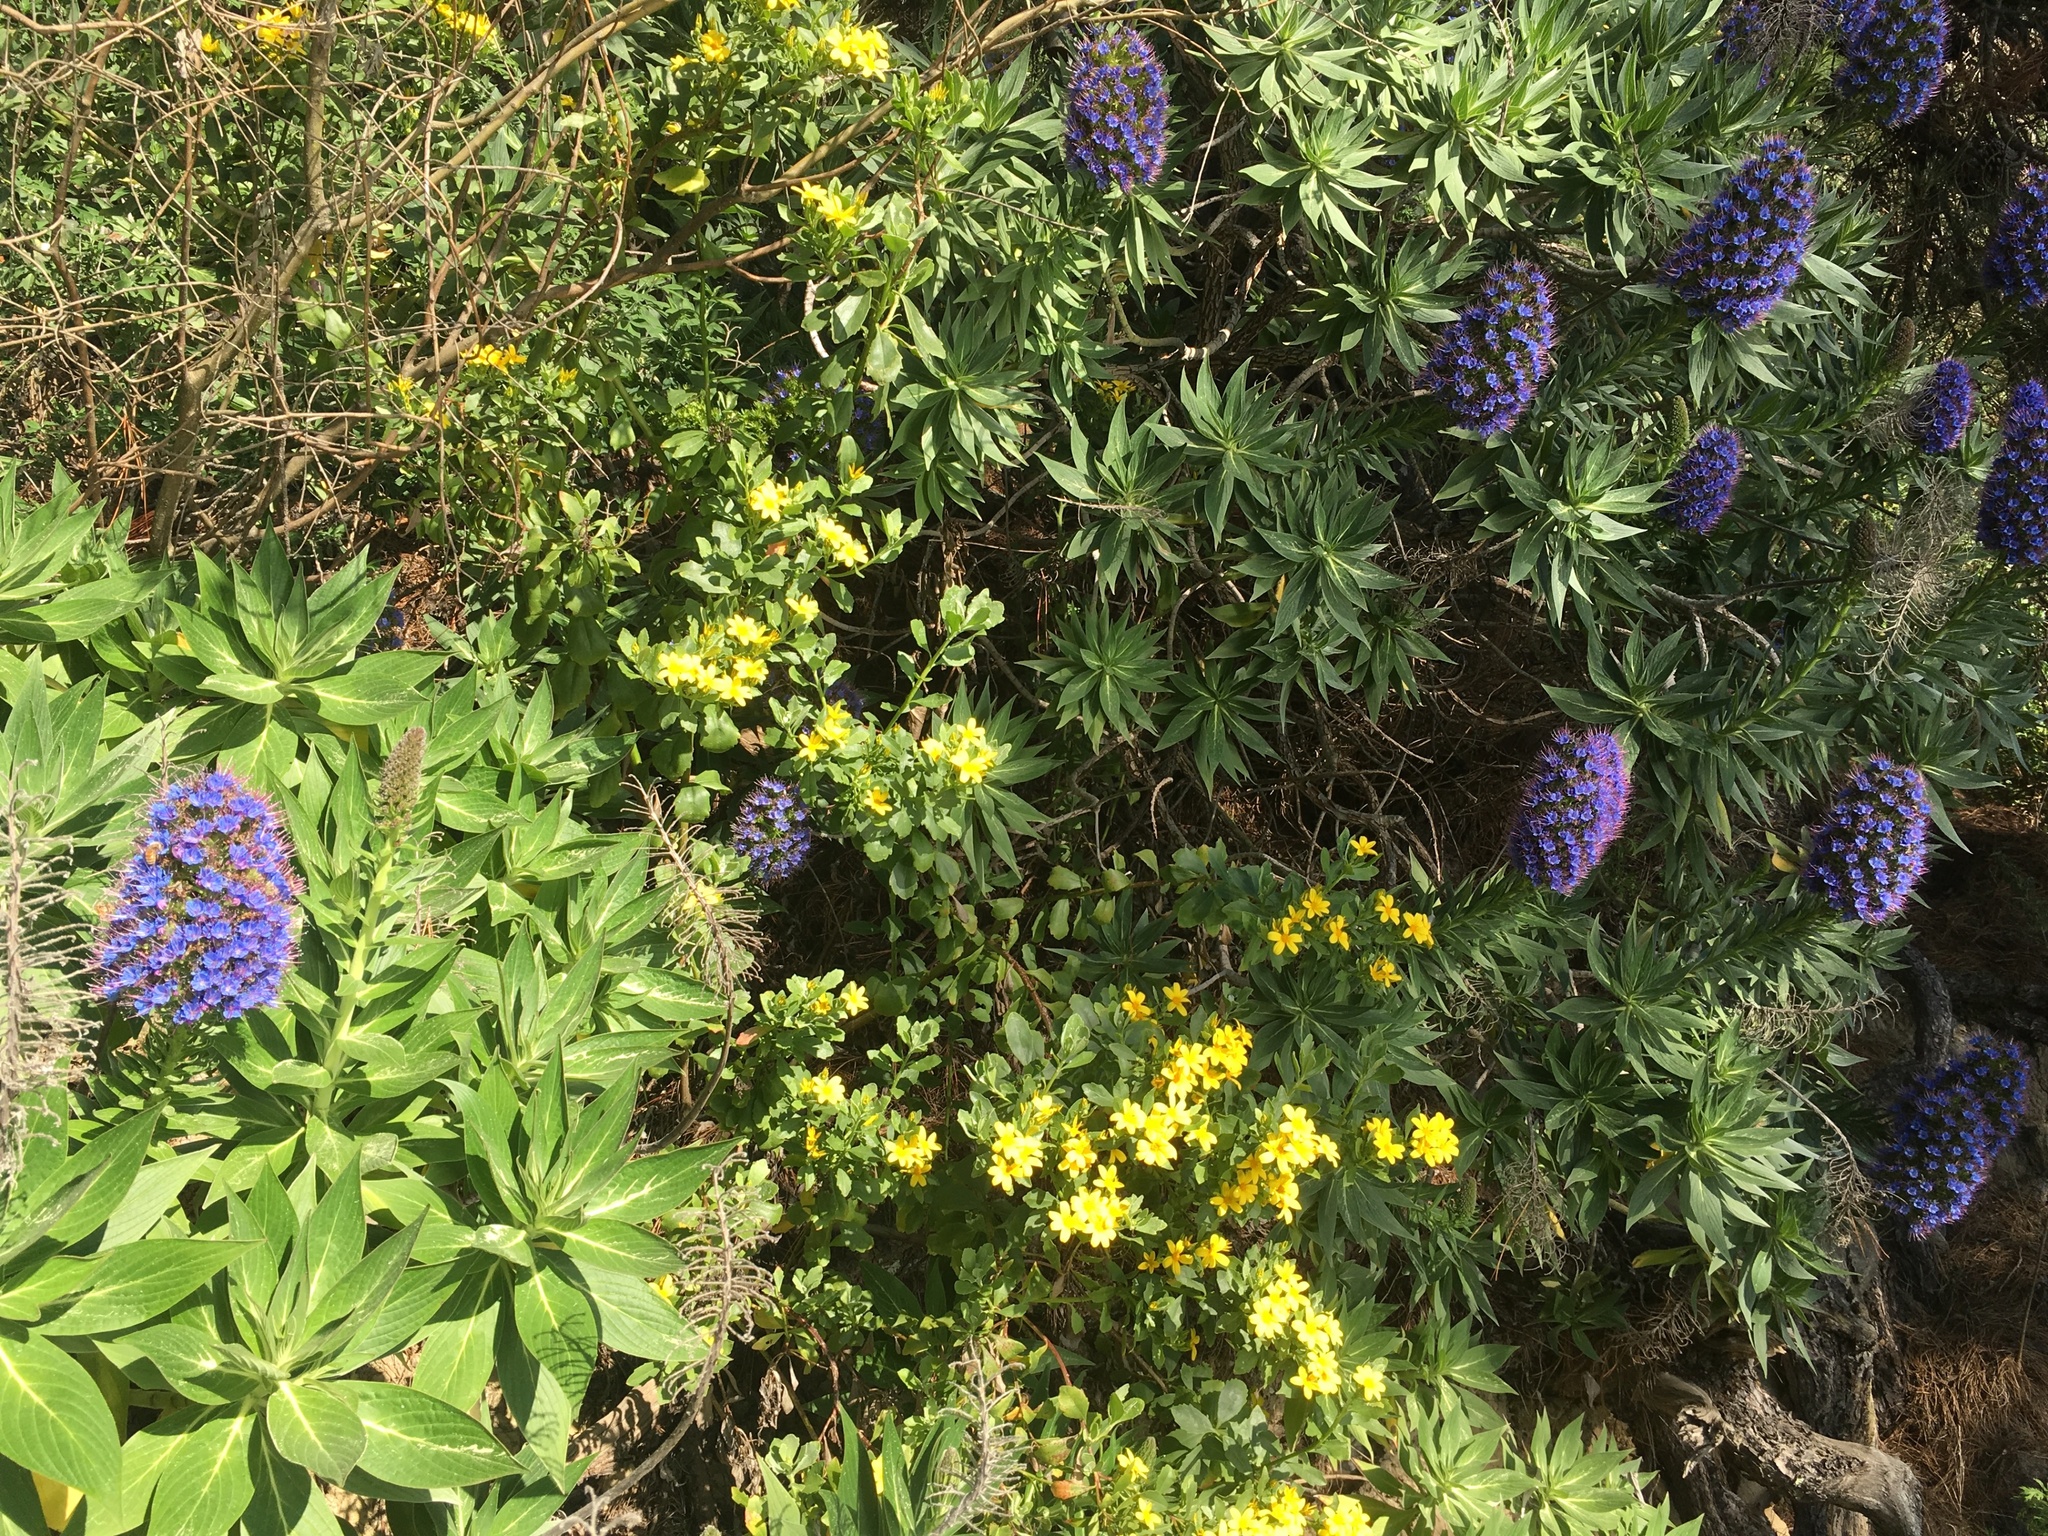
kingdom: Plantae
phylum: Tracheophyta
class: Magnoliopsida
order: Asterales
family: Asteraceae
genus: Osteospermum
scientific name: Osteospermum moniliferum
